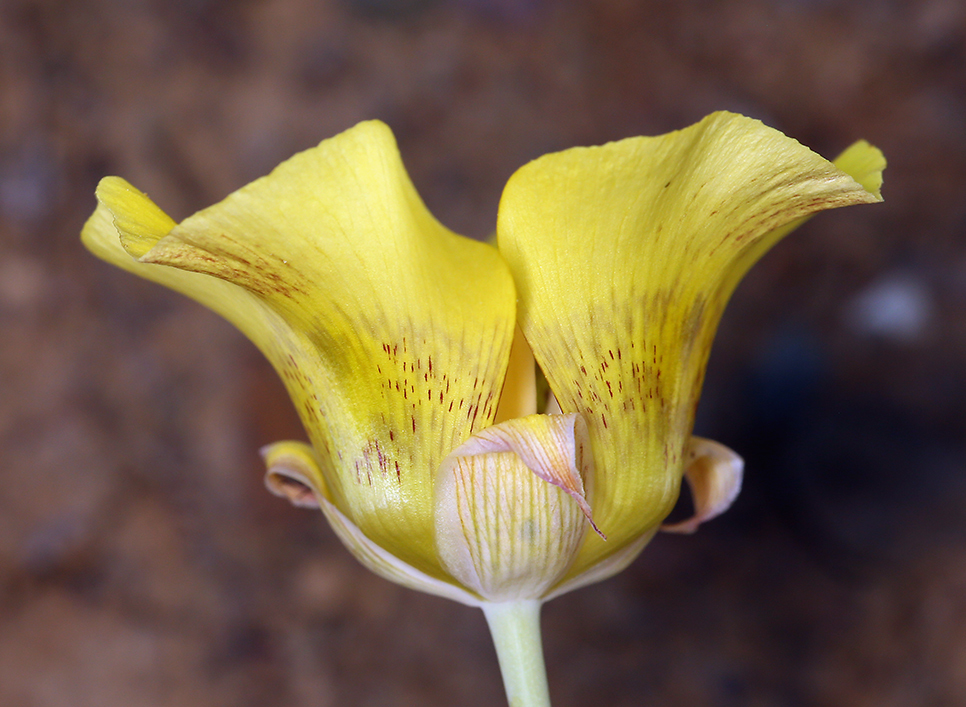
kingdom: Plantae
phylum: Tracheophyta
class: Liliopsida
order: Liliales
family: Liliaceae
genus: Calochortus
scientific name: Calochortus luteus
